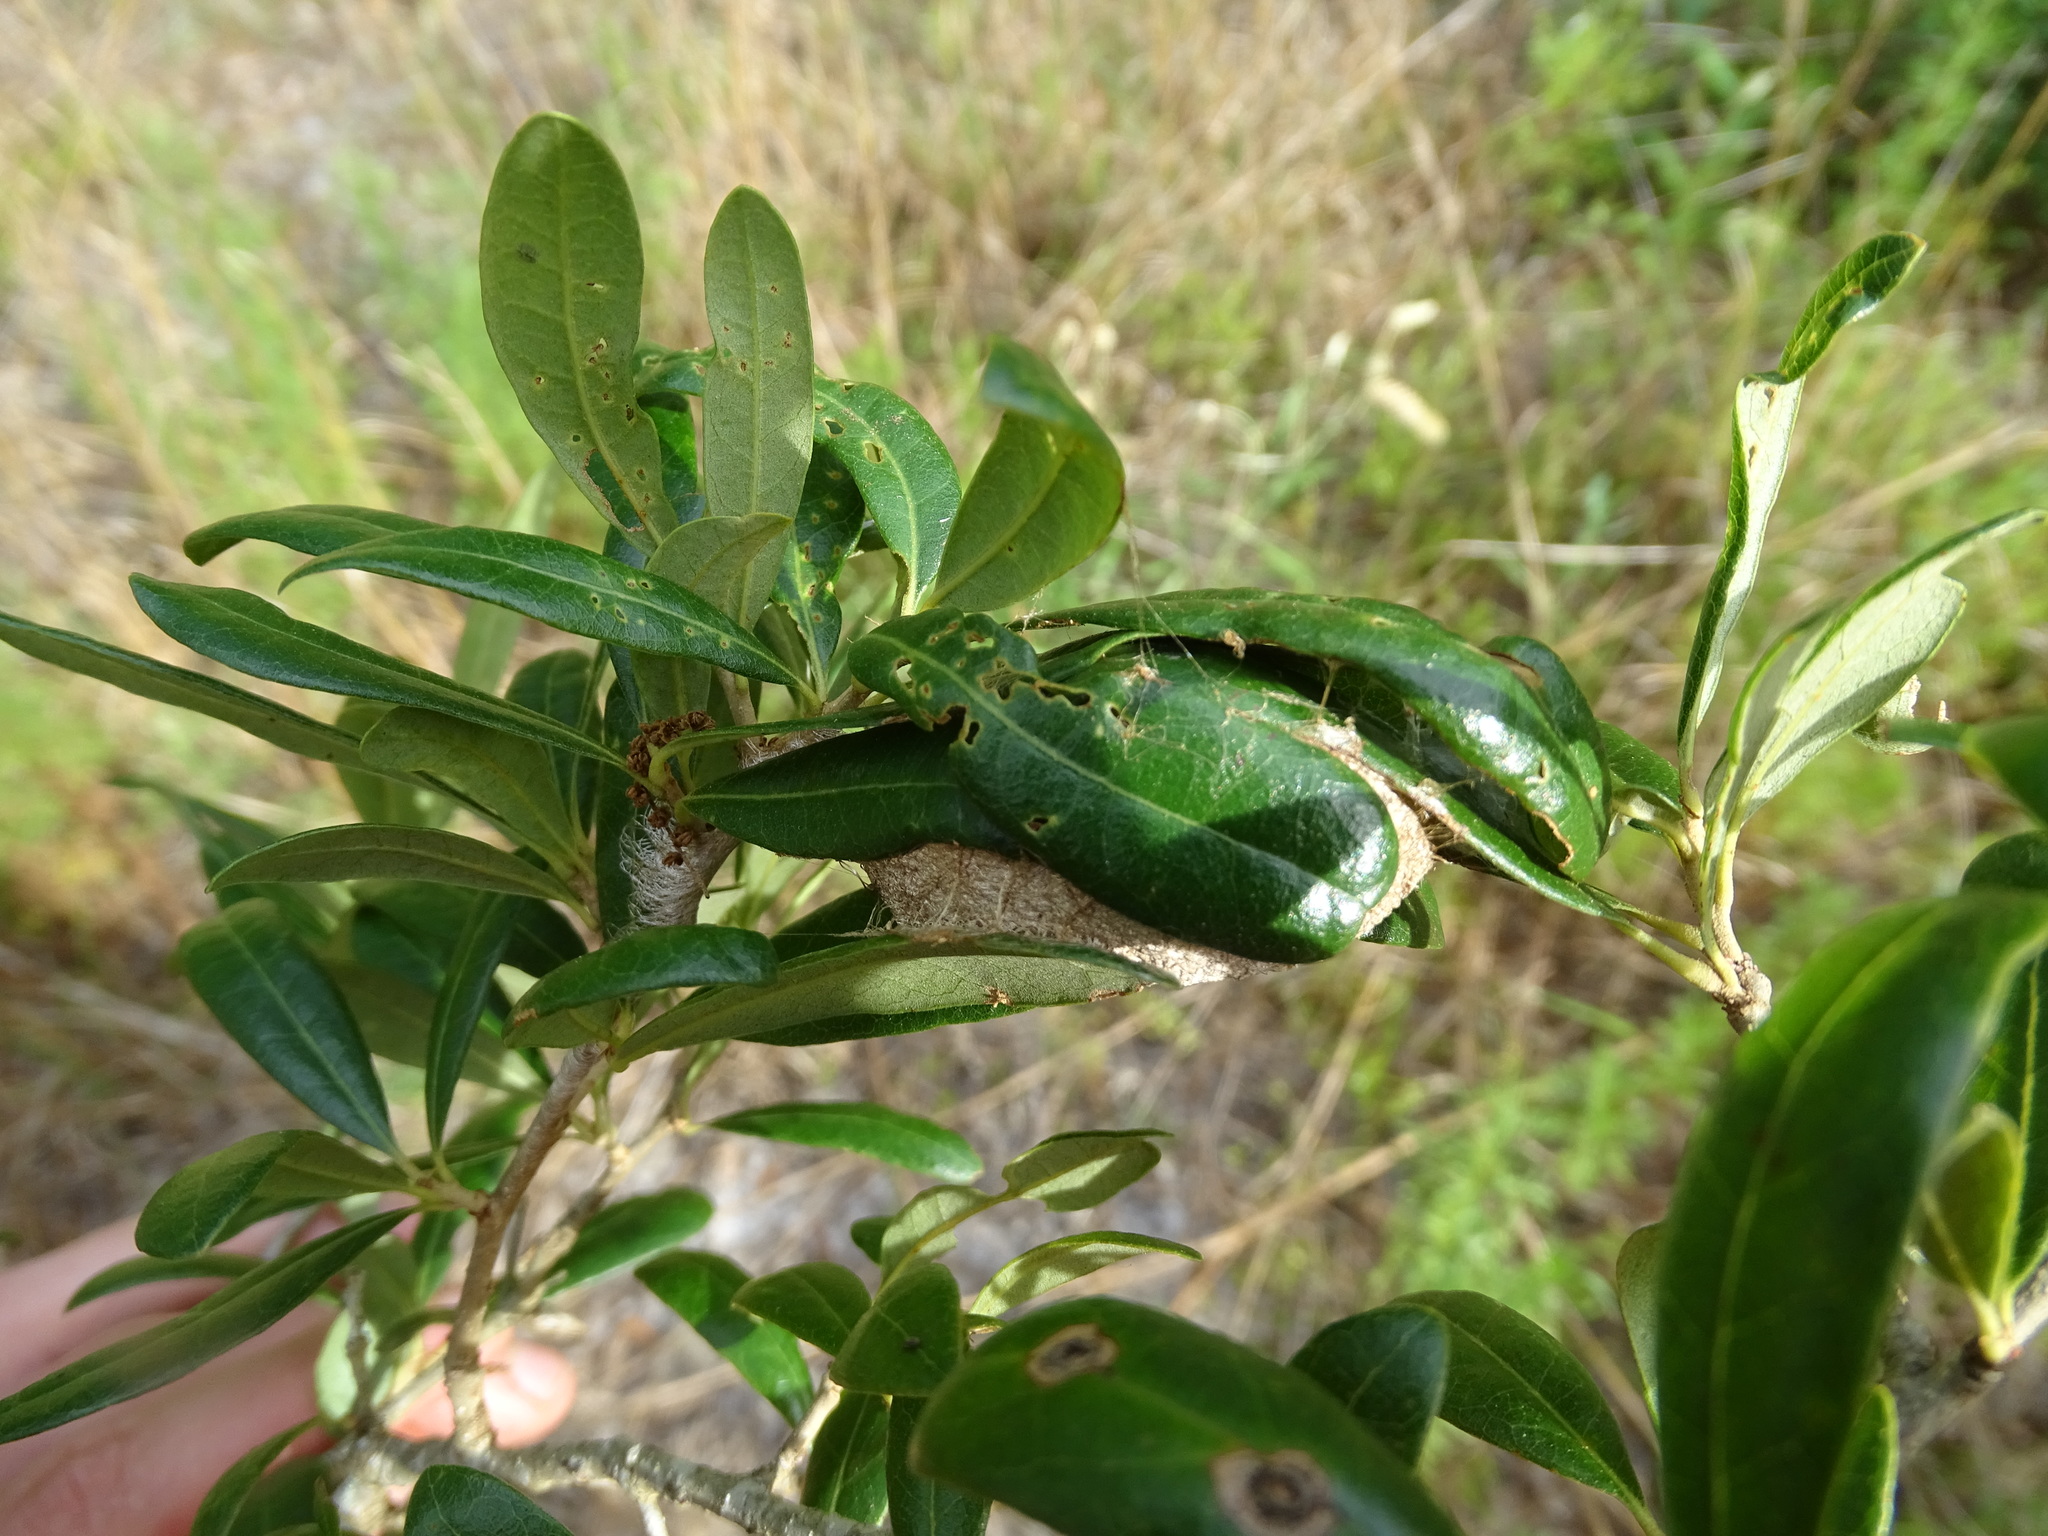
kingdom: Animalia
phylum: Arthropoda
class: Insecta
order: Lepidoptera
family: Saturniidae
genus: Antheraea
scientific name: Antheraea polyphemus
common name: Polyphemus moth
